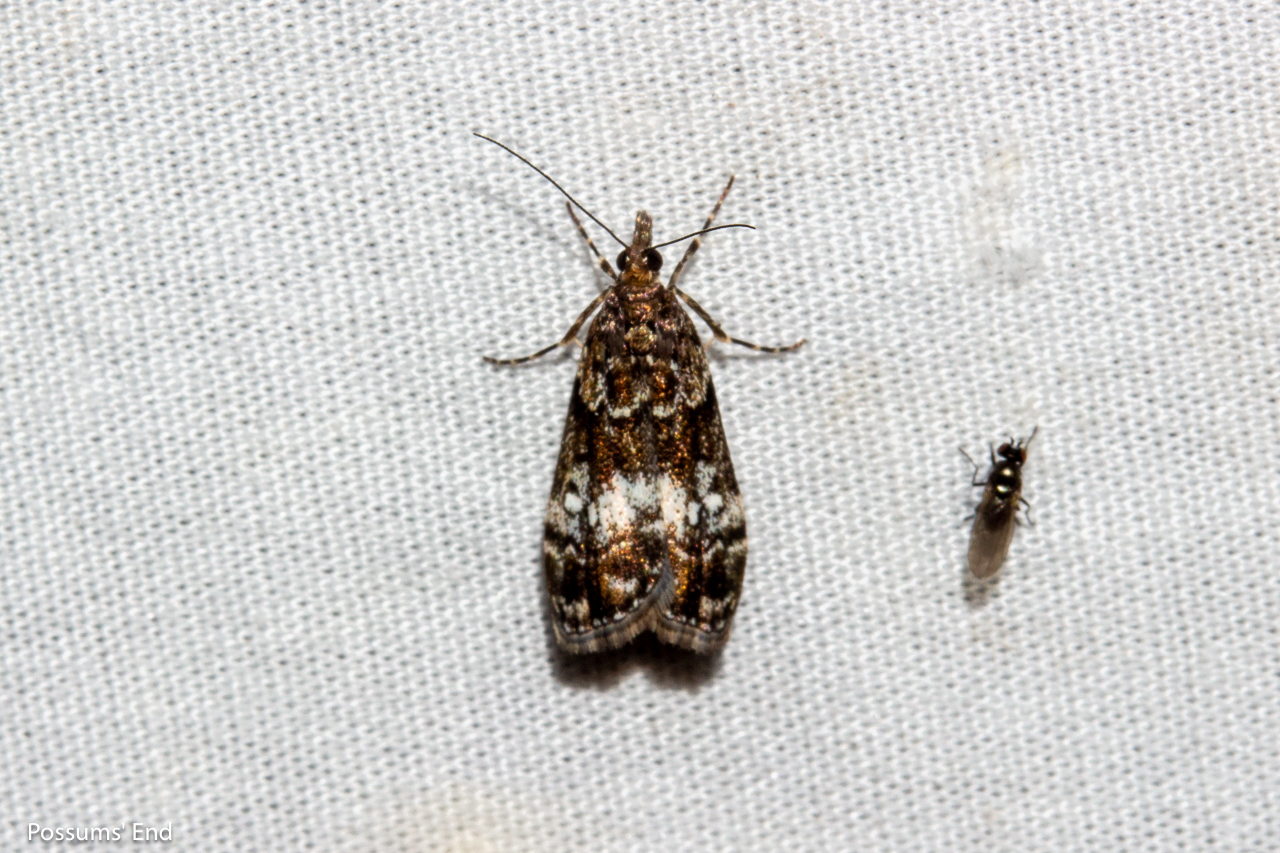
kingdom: Animalia
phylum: Arthropoda
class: Insecta
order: Lepidoptera
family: Crambidae
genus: Eudonia
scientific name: Eudonia dinodes
